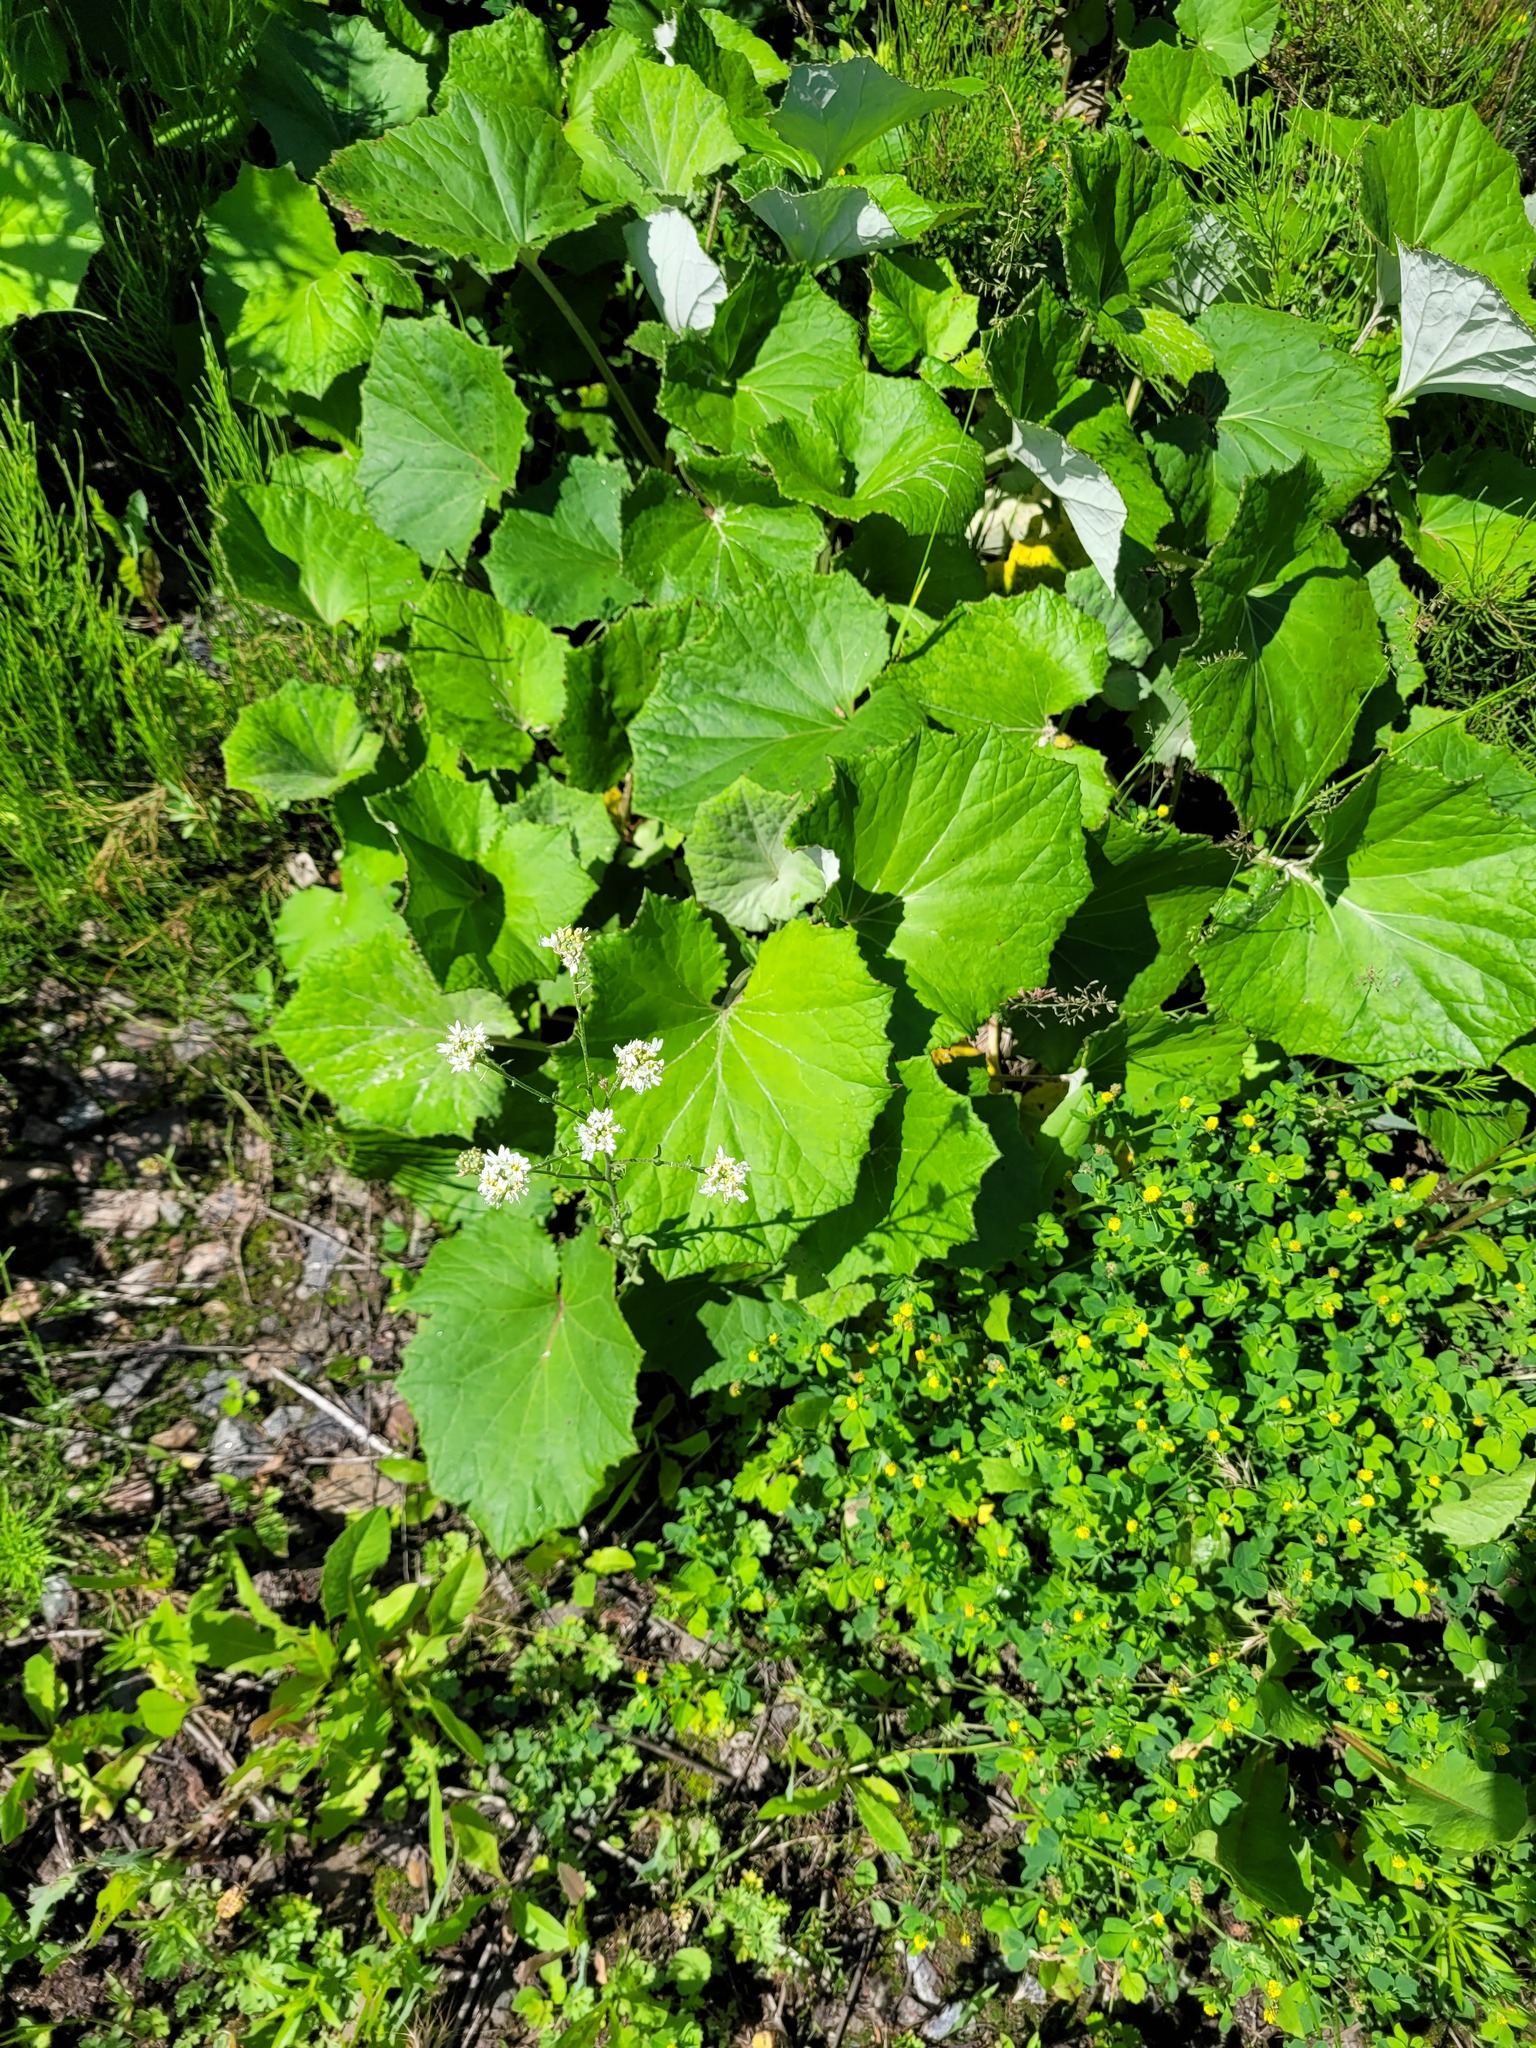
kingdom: Plantae
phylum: Tracheophyta
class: Magnoliopsida
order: Asterales
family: Asteraceae
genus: Tussilago
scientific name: Tussilago farfara
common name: Coltsfoot
